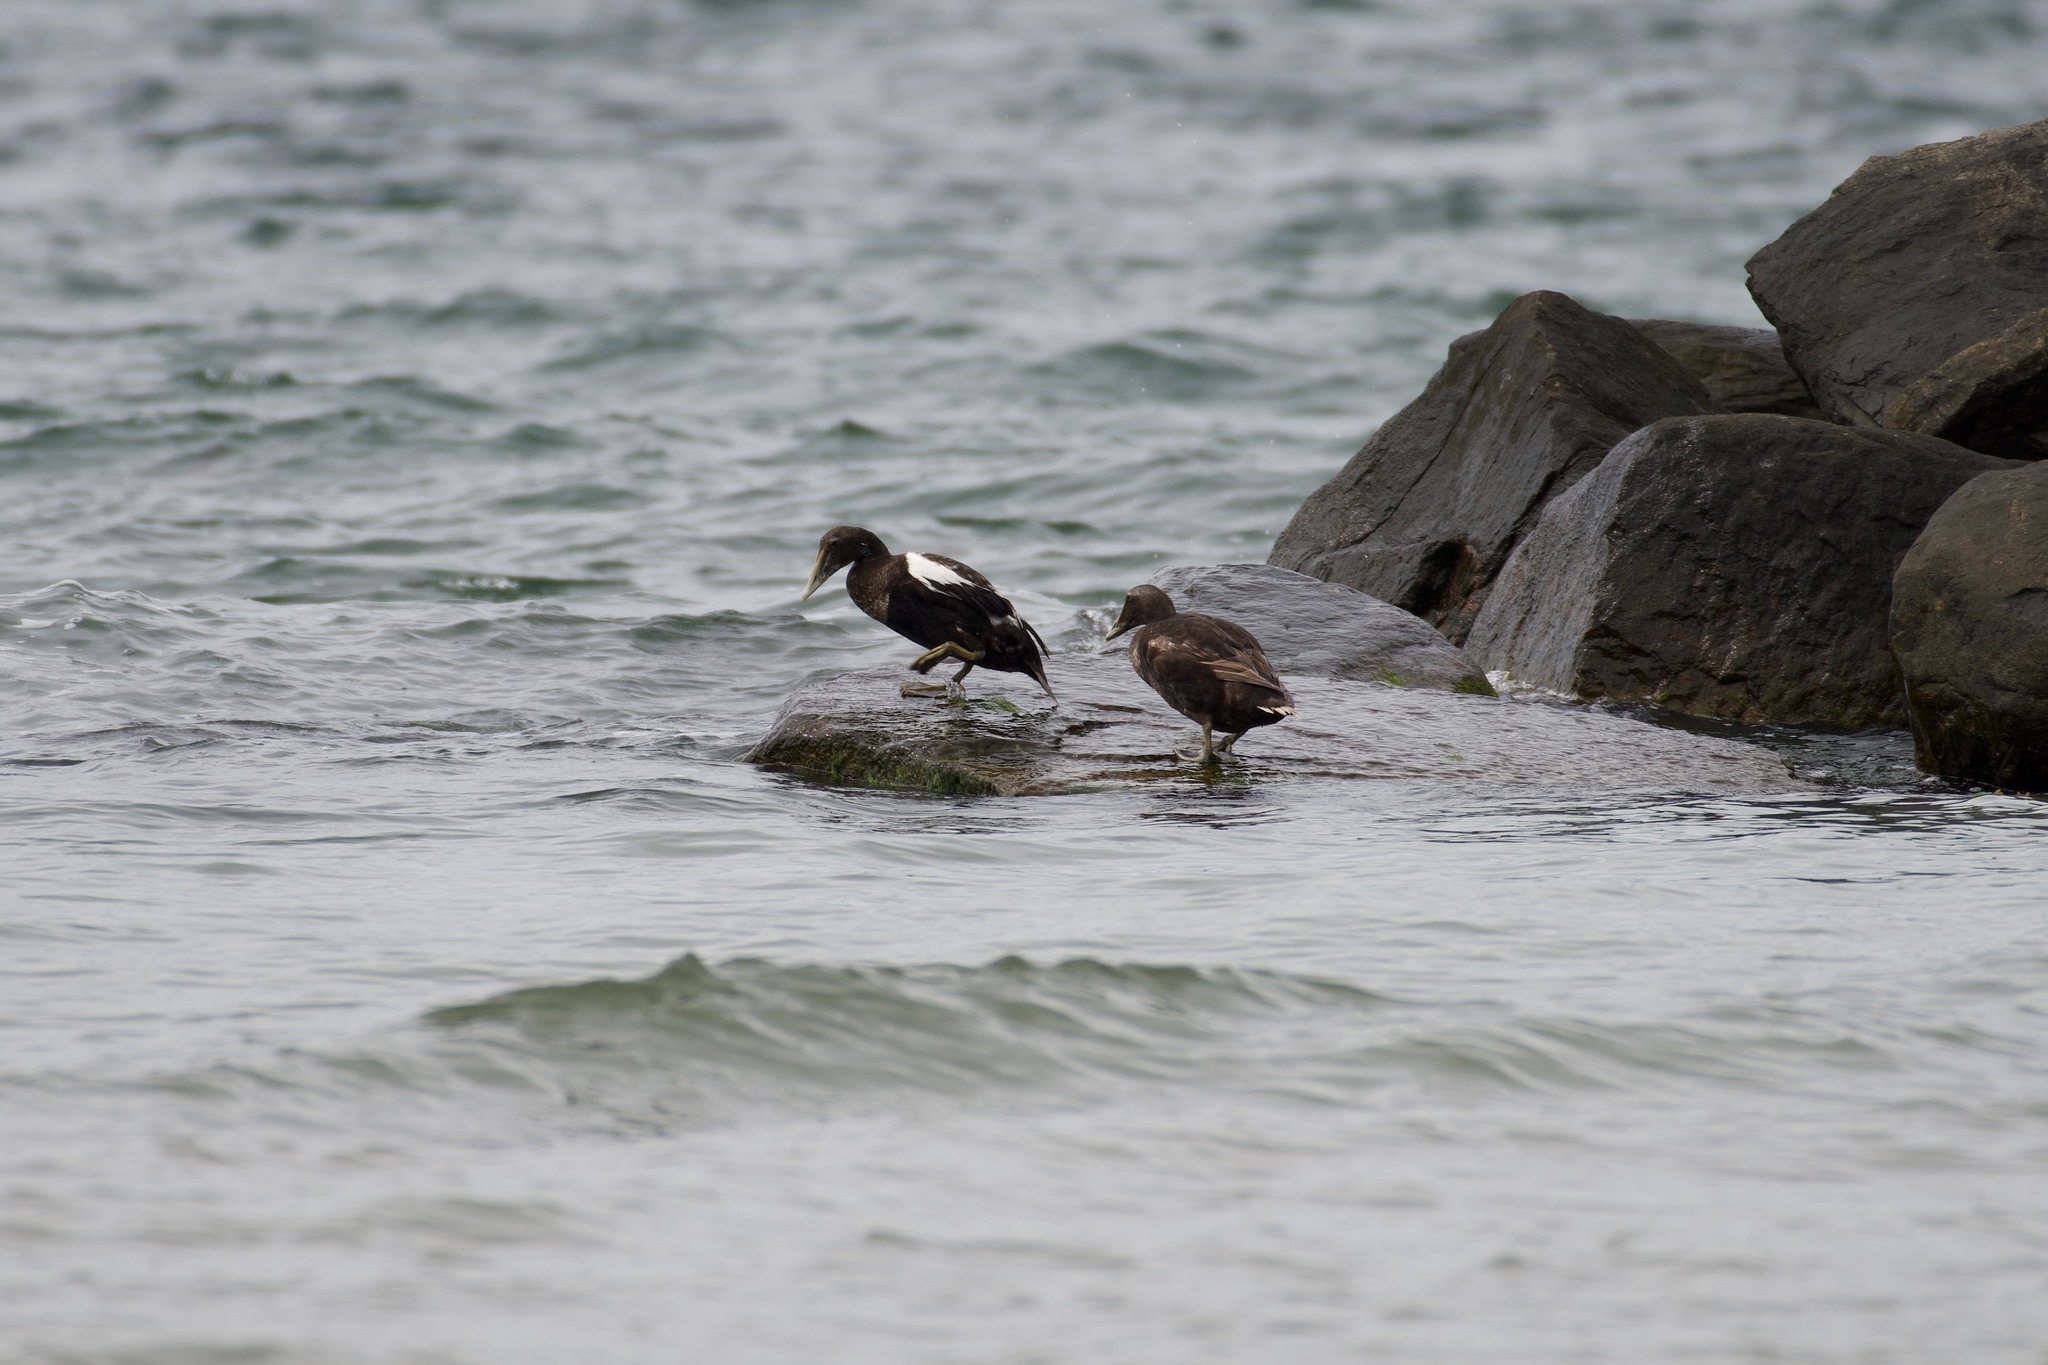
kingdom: Animalia
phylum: Chordata
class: Aves
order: Anseriformes
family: Anatidae
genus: Somateria
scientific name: Somateria mollissima
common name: Common eider
